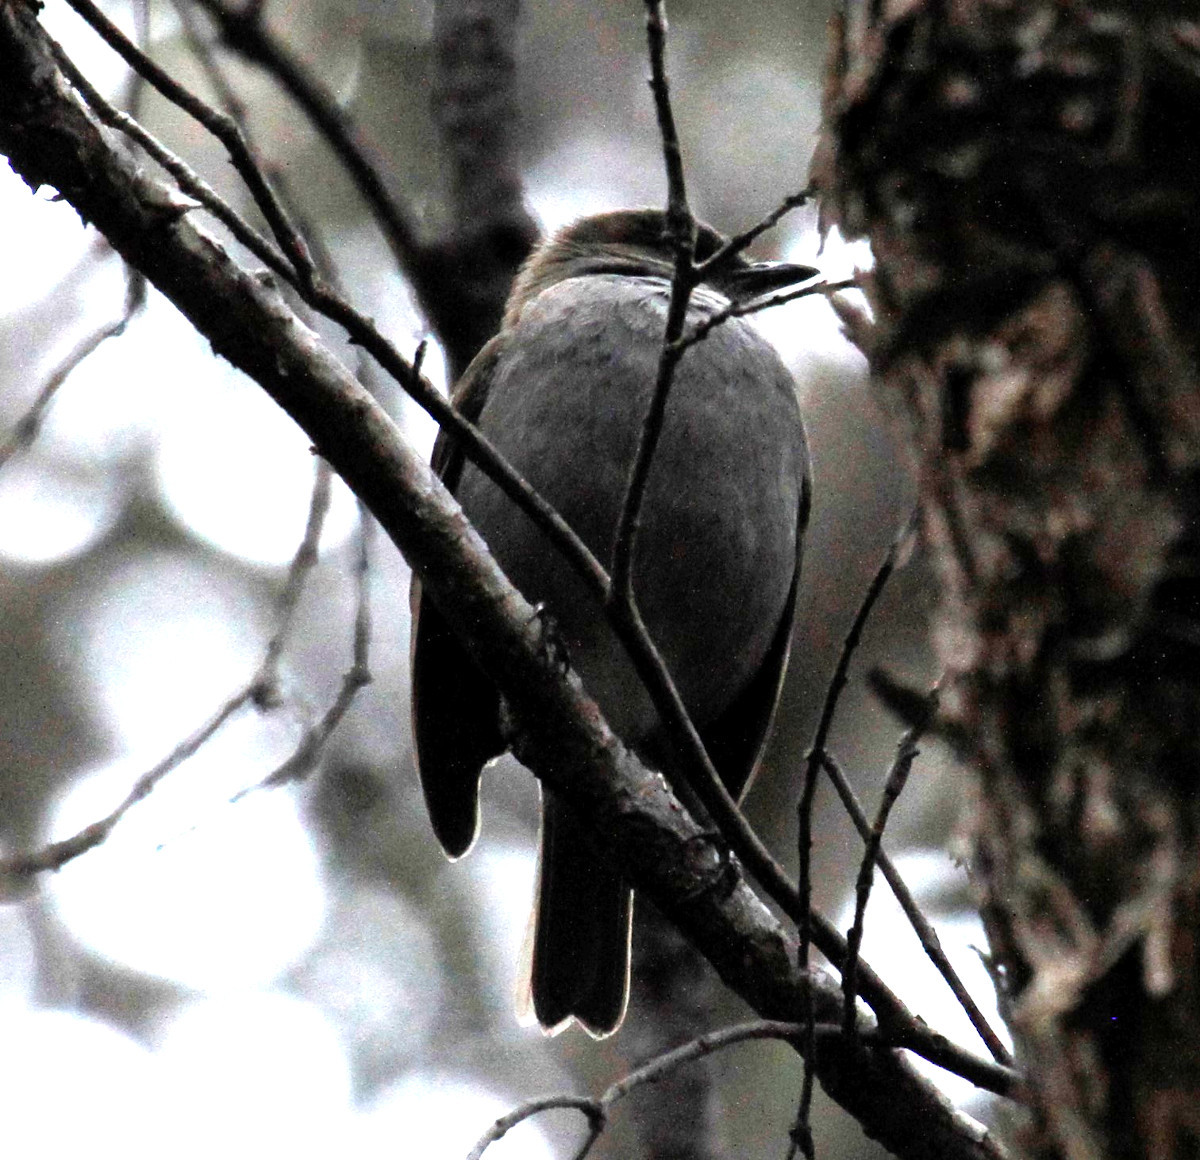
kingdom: Animalia
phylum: Chordata
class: Aves
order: Passeriformes
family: Turdidae
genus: Myadestes
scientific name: Myadestes obscurus
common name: Omao
